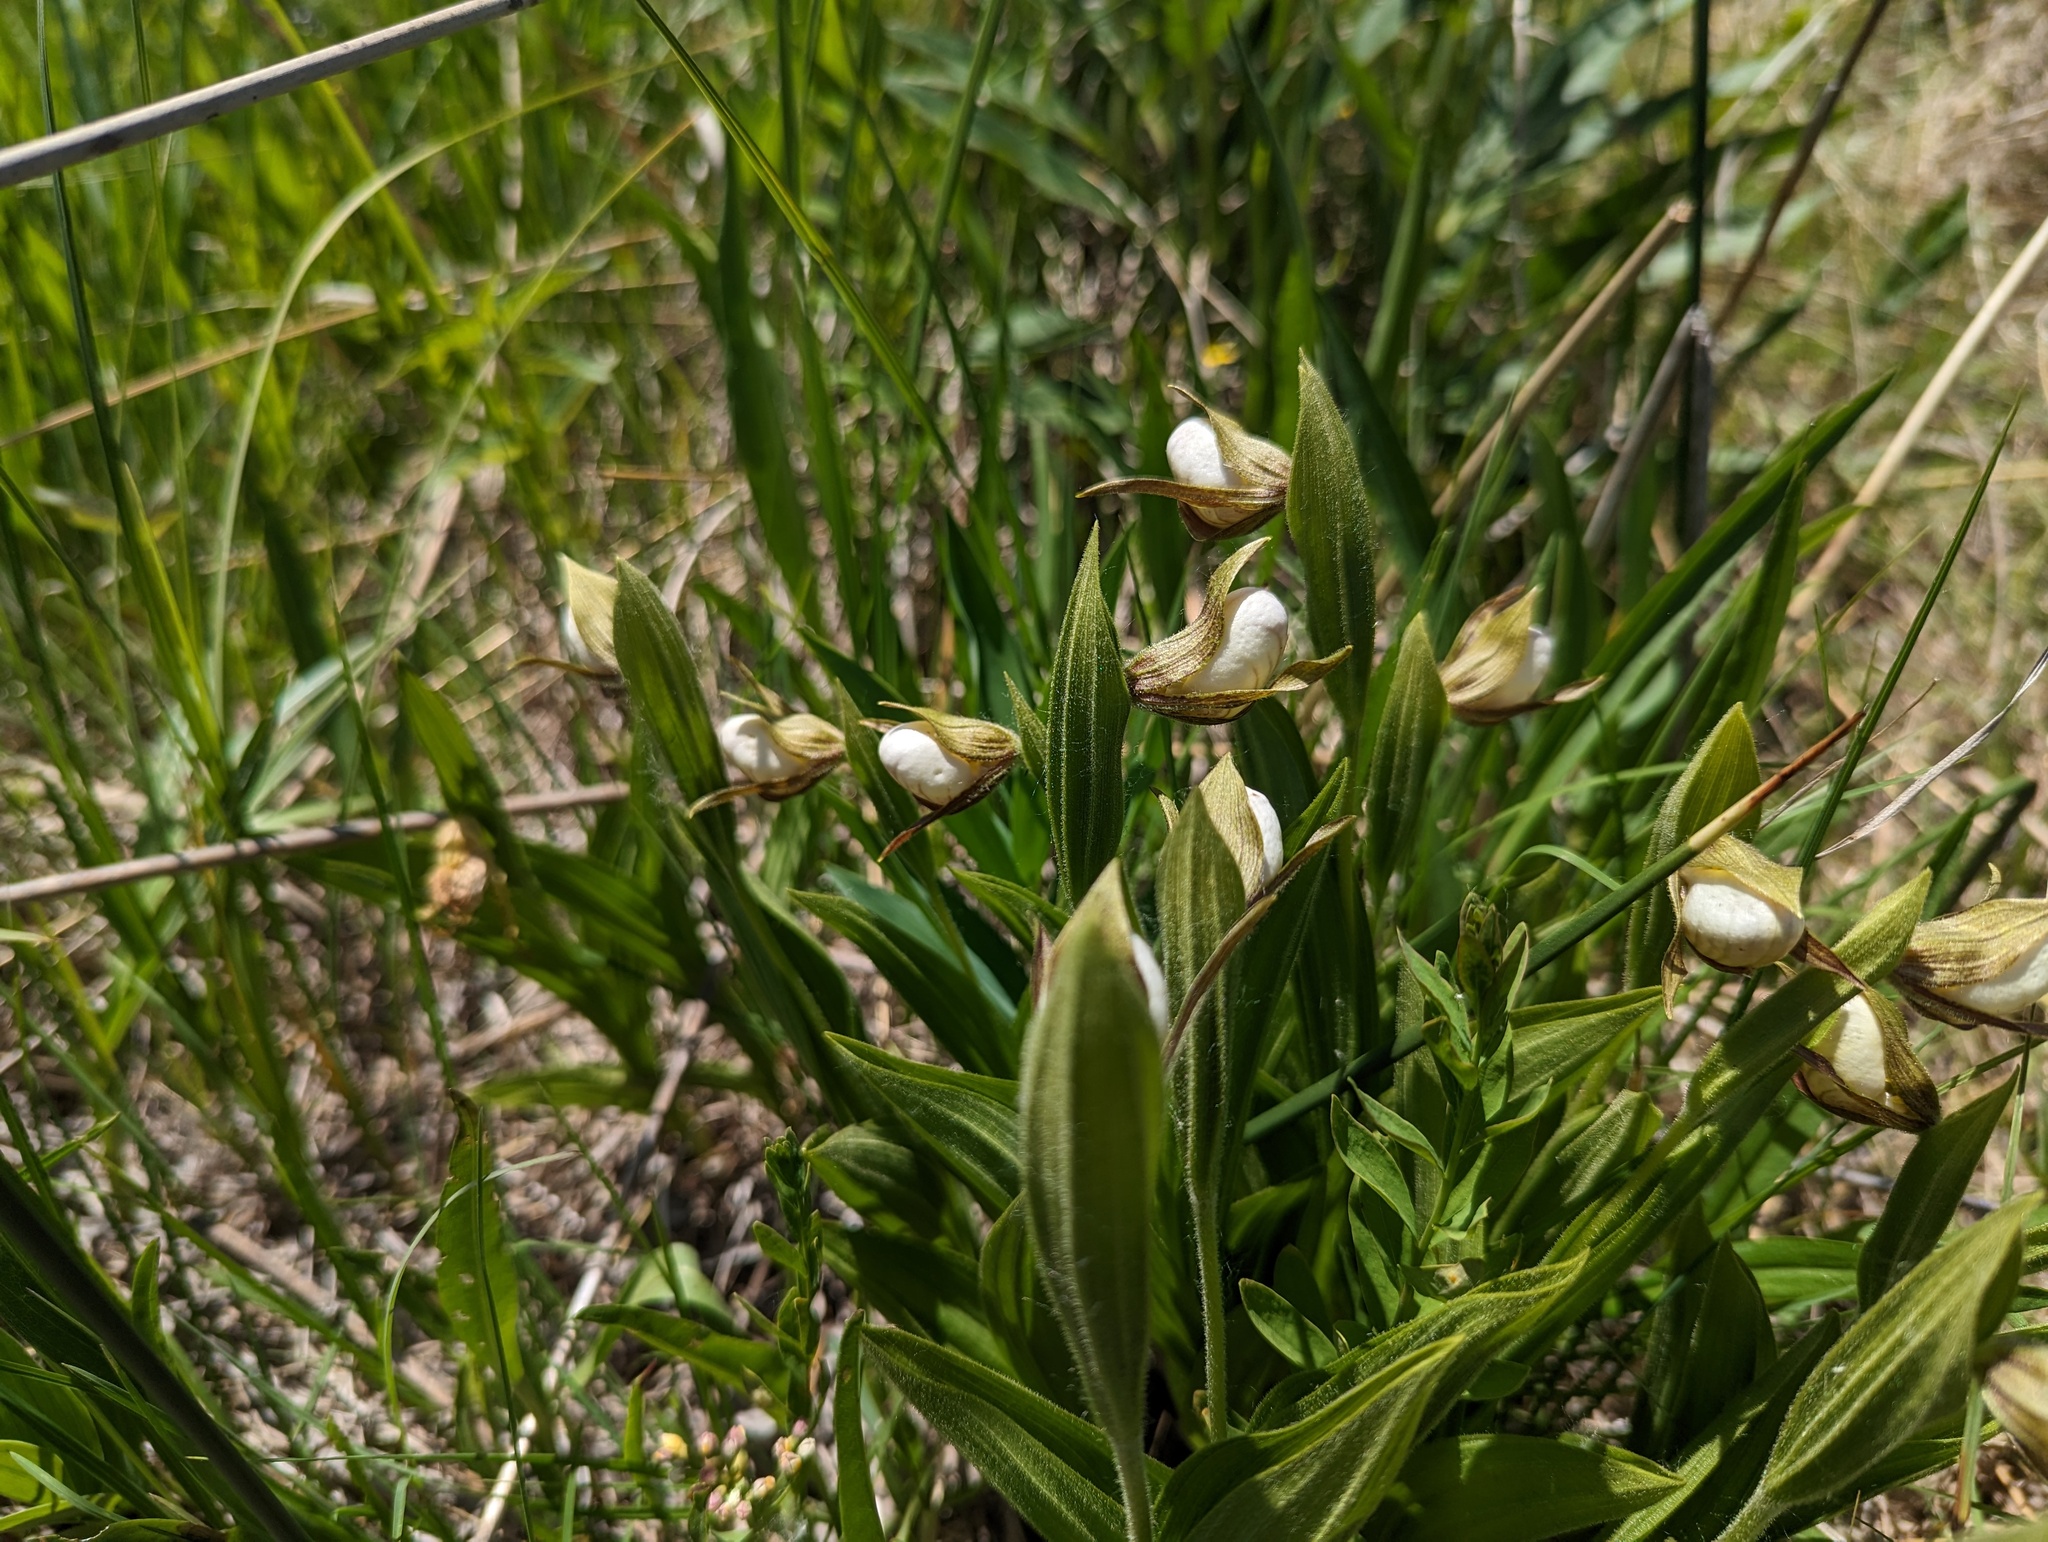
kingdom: Plantae
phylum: Tracheophyta
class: Liliopsida
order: Asparagales
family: Orchidaceae
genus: Cypripedium
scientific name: Cypripedium candidum
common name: White lady's-slipper
